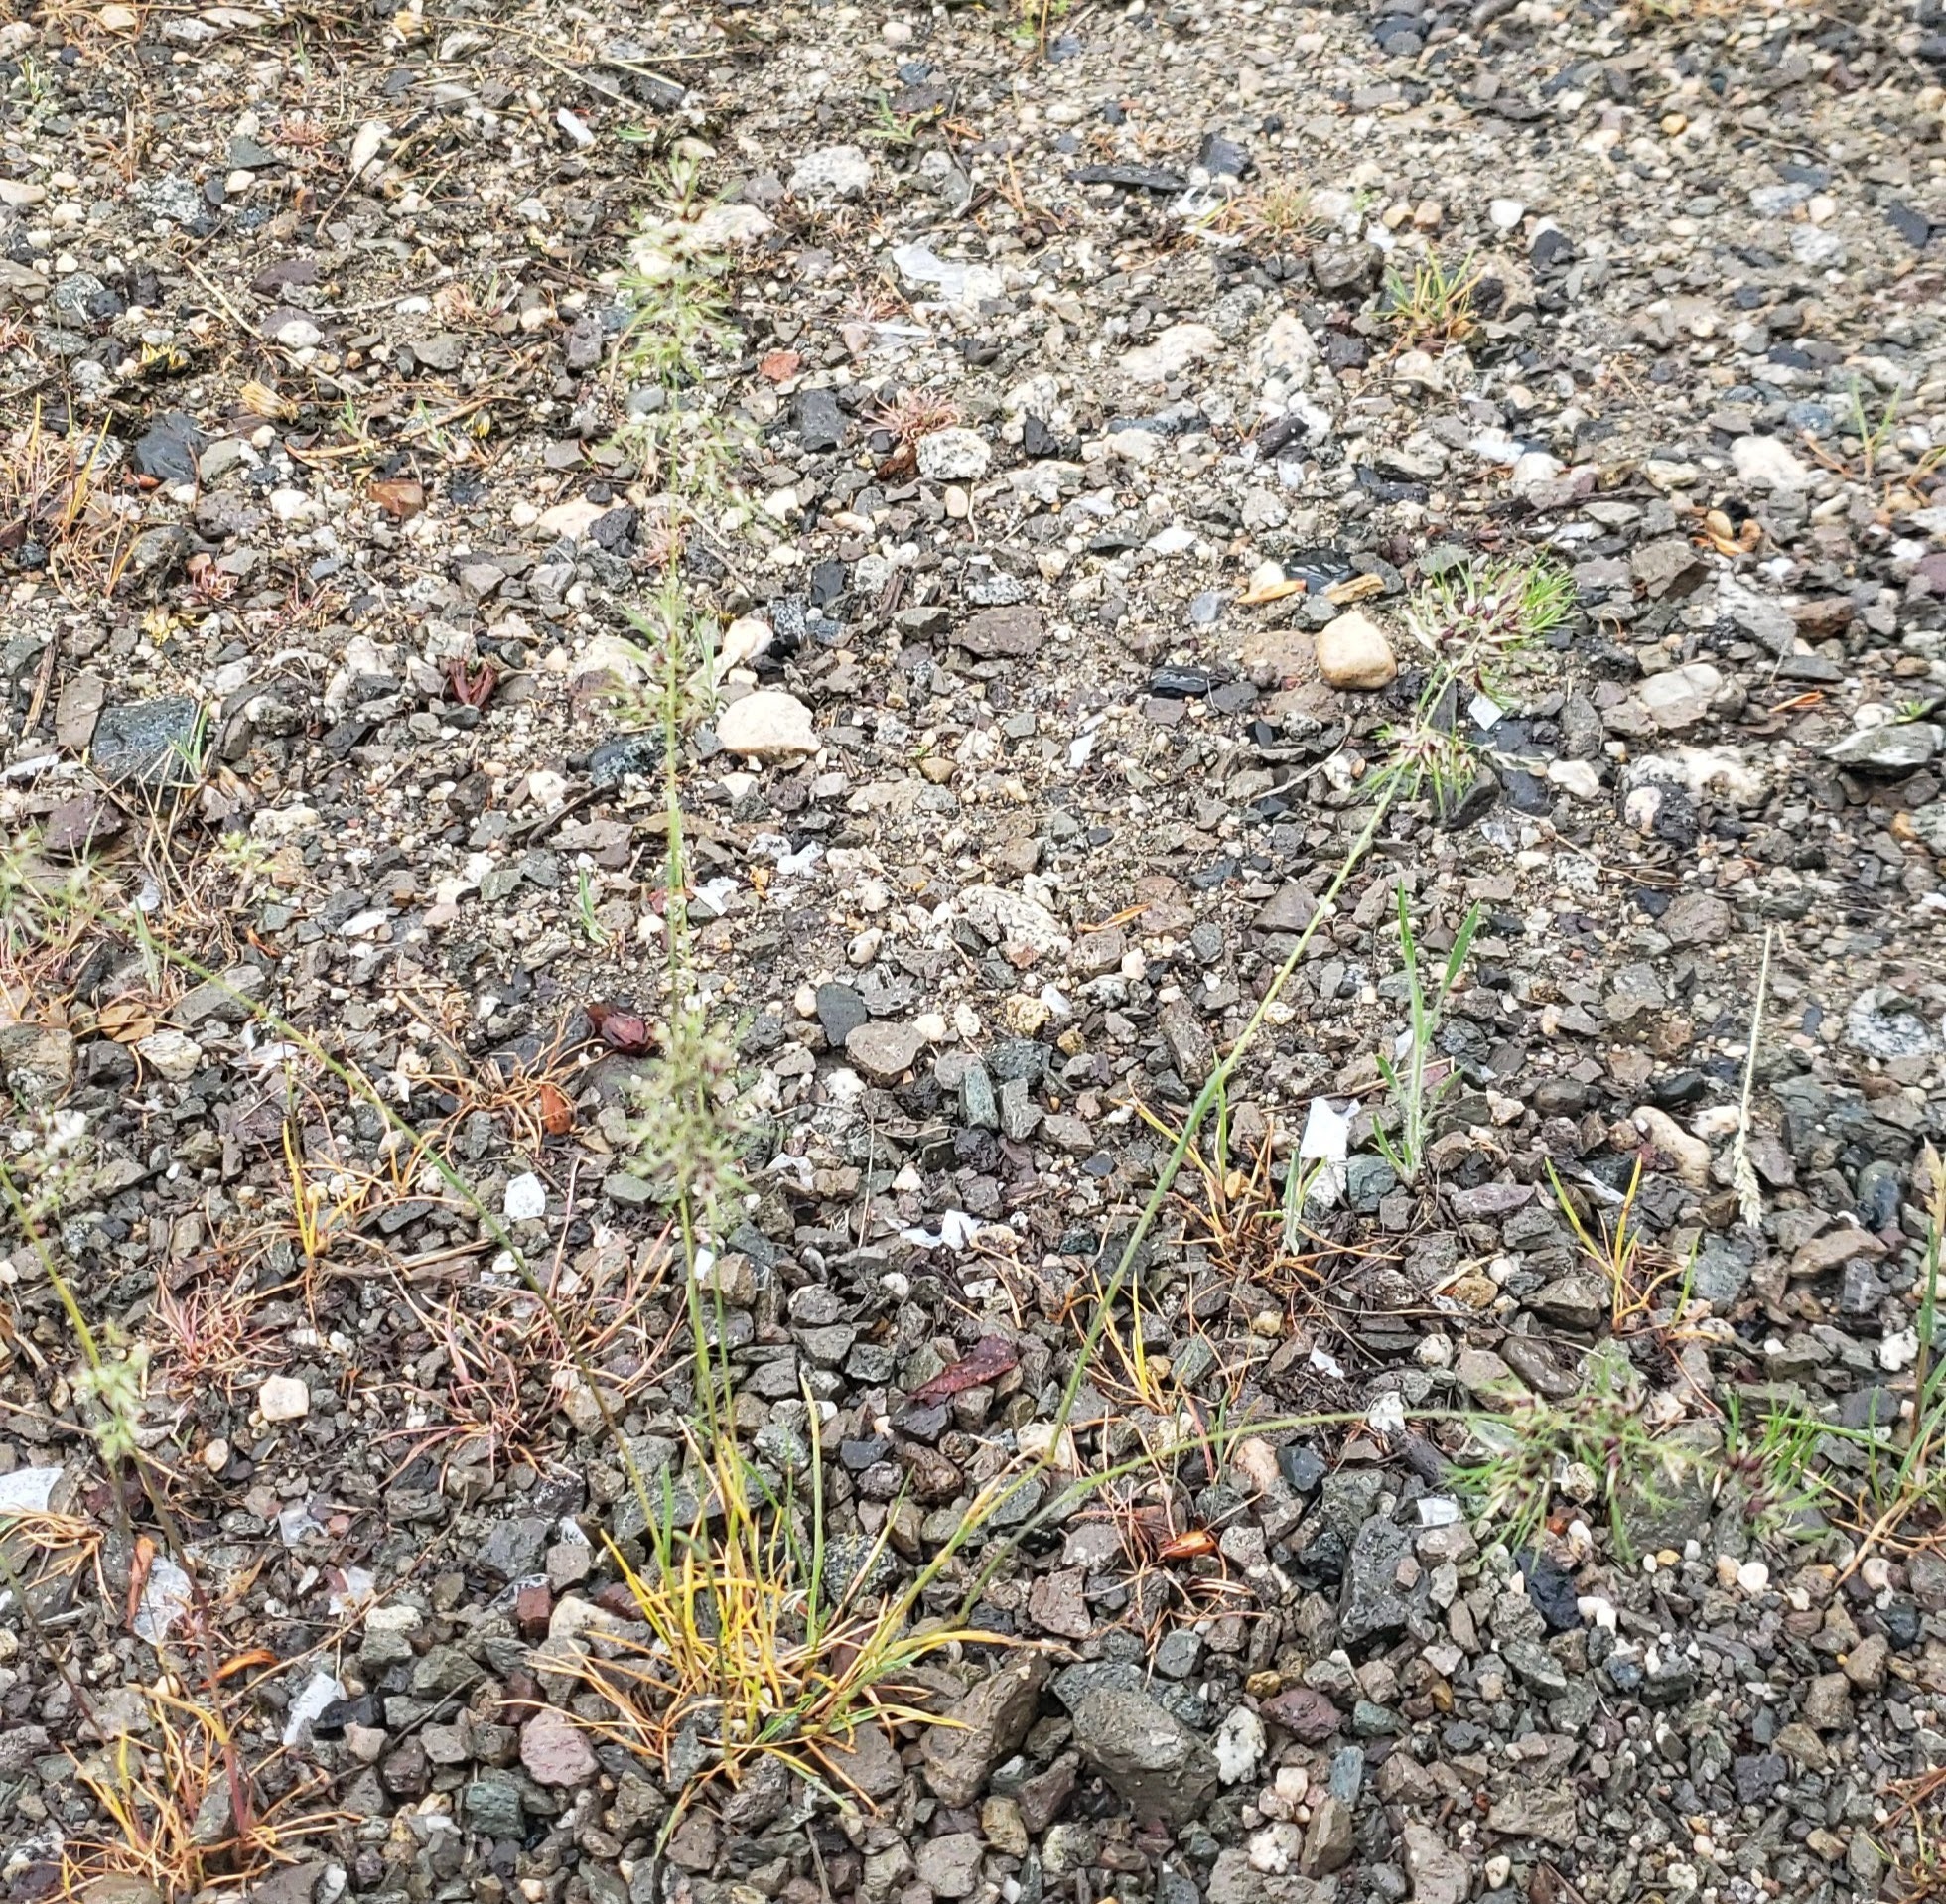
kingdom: Plantae
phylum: Tracheophyta
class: Liliopsida
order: Poales
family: Poaceae
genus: Poa
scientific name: Poa bulbosa
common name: Bulbous bluegrass
